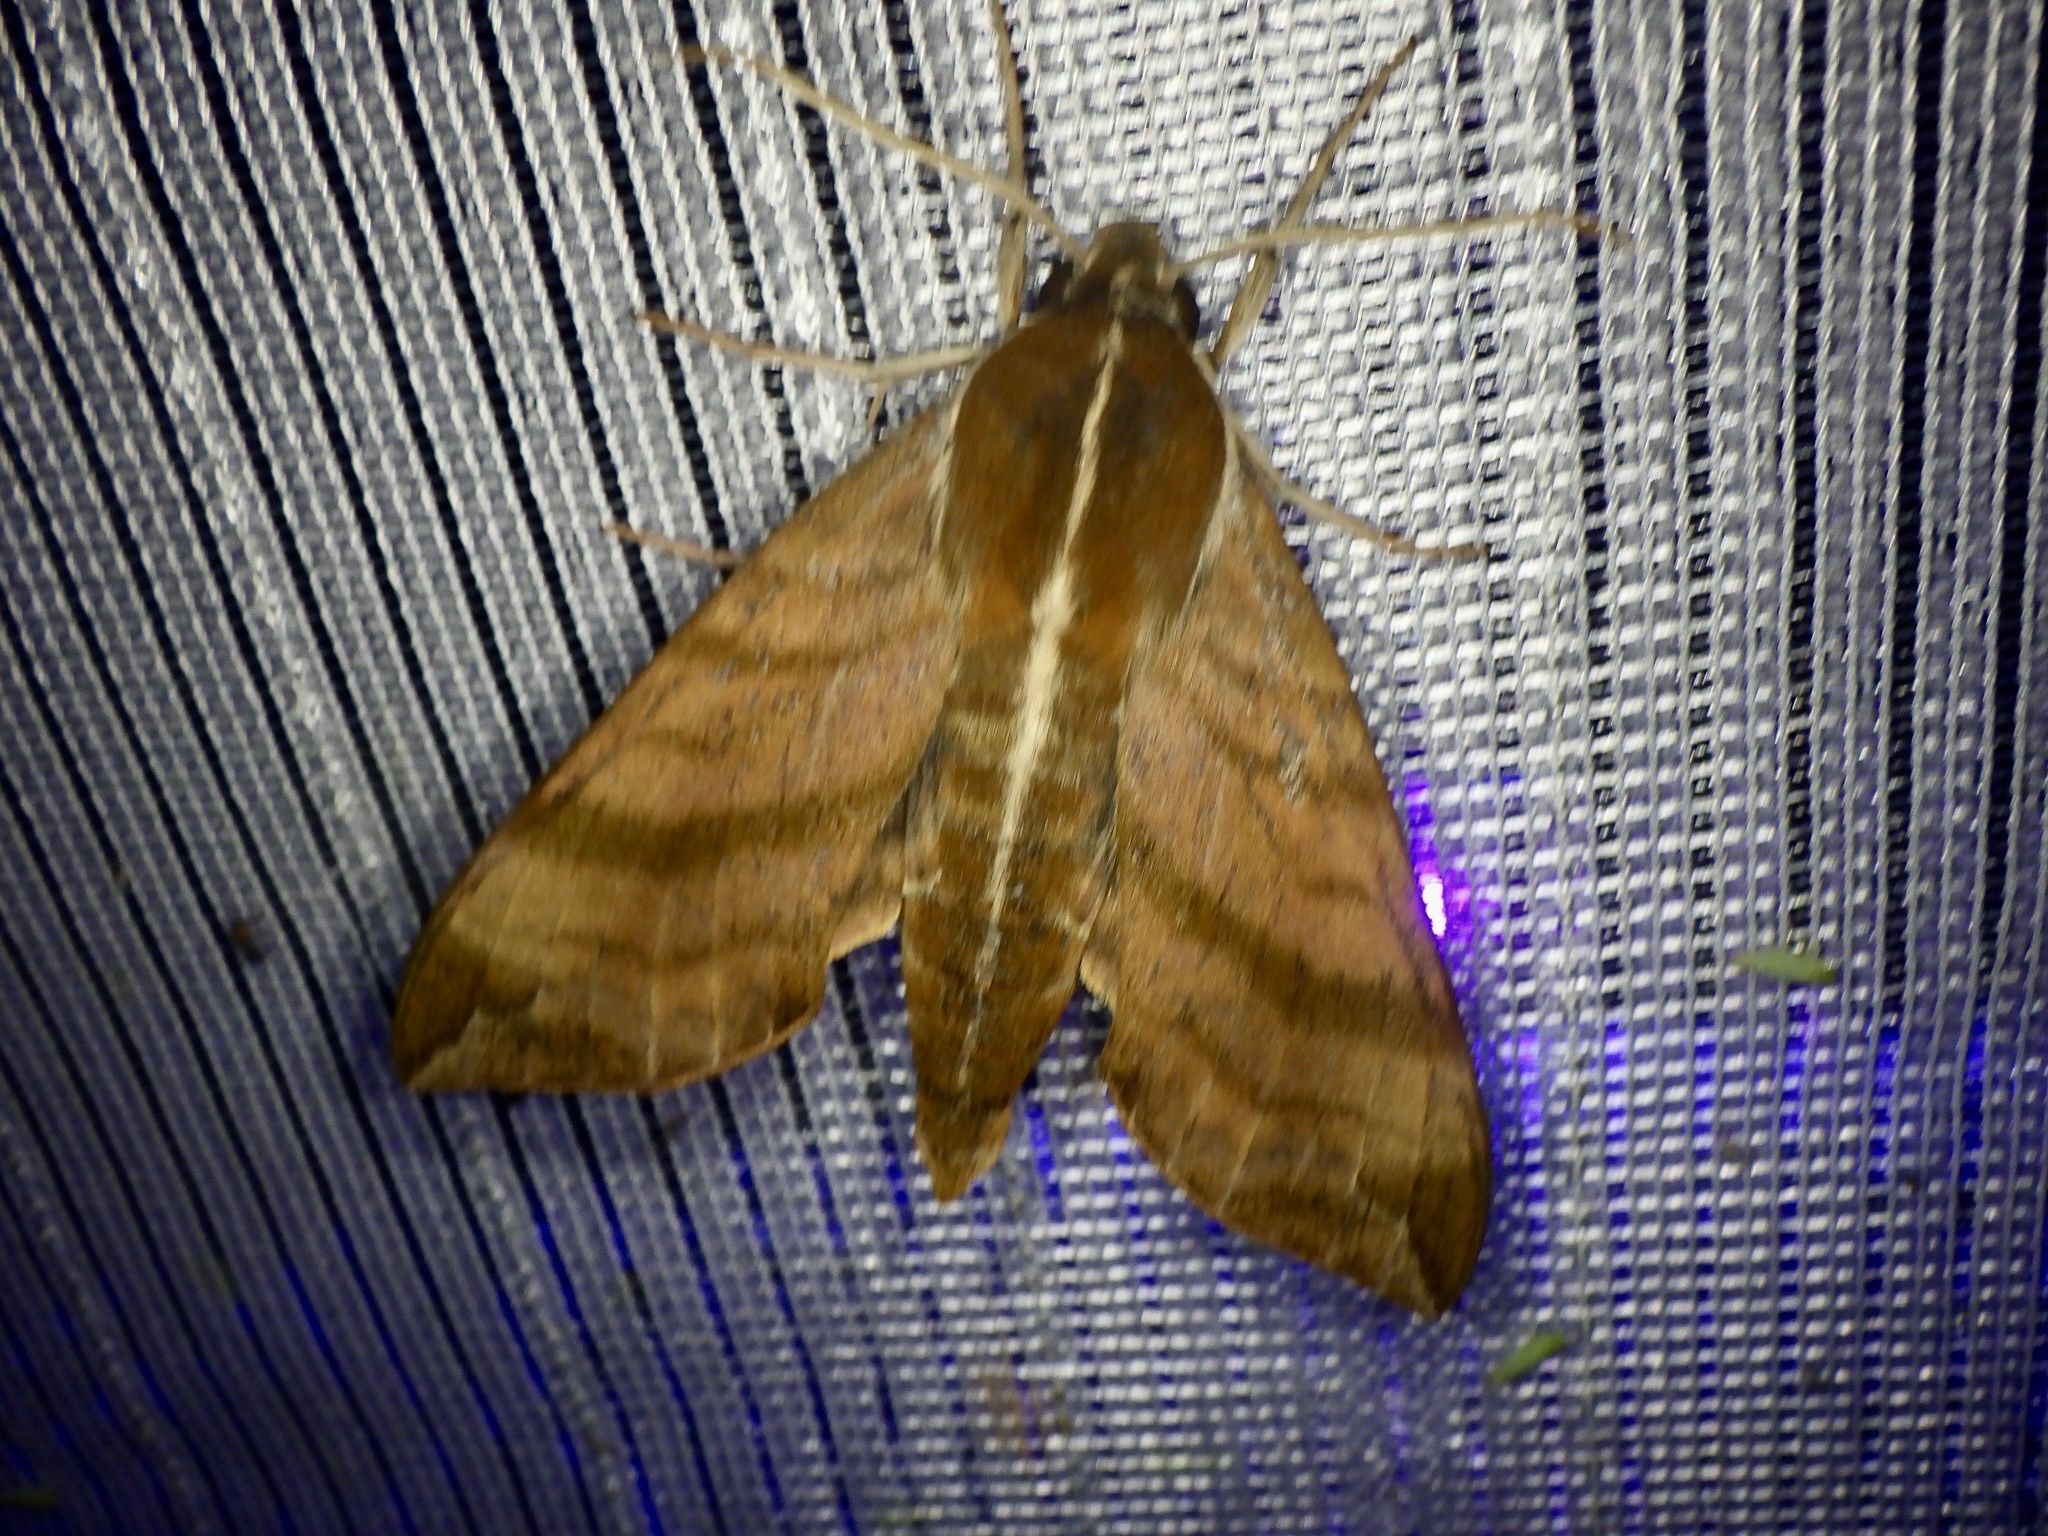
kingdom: Animalia
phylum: Arthropoda
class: Insecta
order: Lepidoptera
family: Sphingidae
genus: Ampelophaga
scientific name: Ampelophaga rubiginosa
